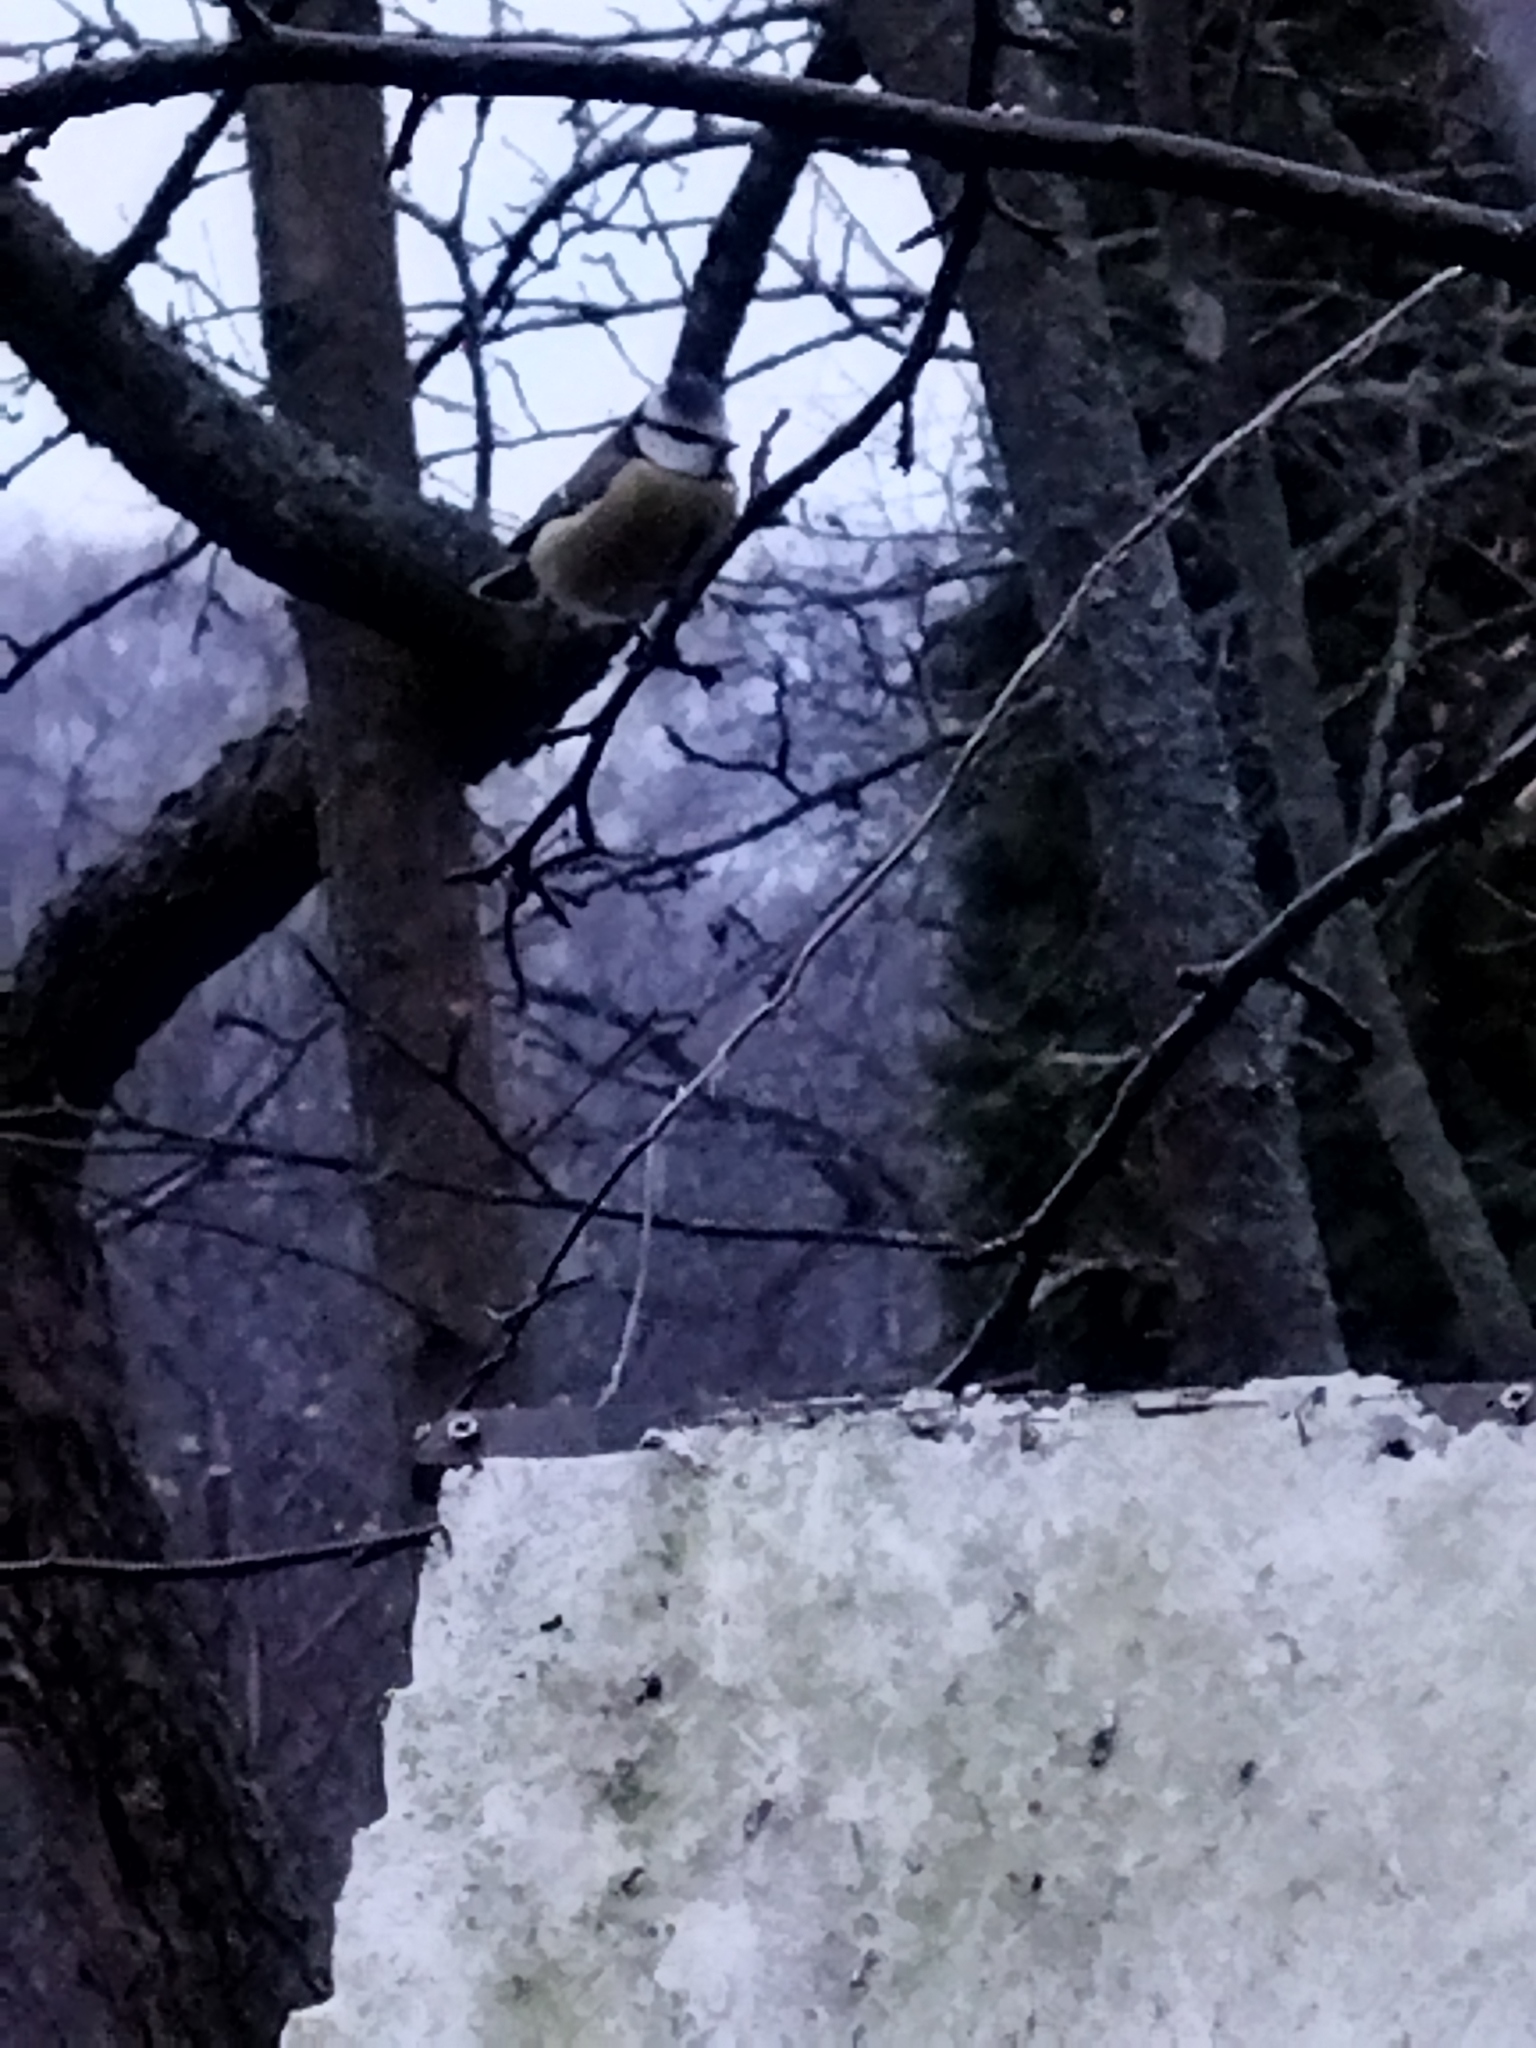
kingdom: Animalia
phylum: Chordata
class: Aves
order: Passeriformes
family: Paridae
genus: Cyanistes
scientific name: Cyanistes caeruleus
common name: Eurasian blue tit
